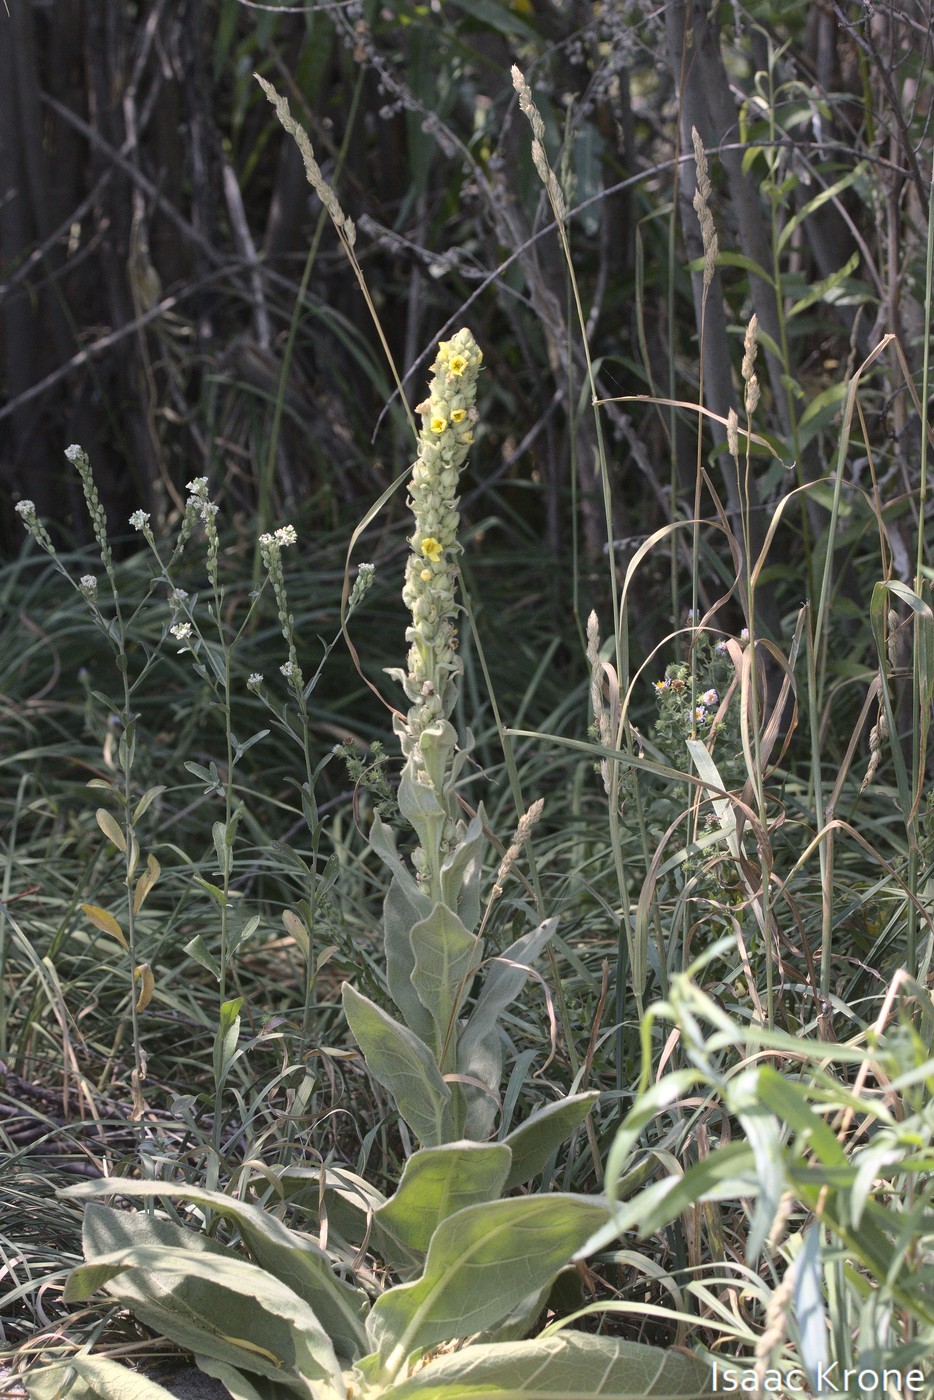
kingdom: Plantae
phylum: Tracheophyta
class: Magnoliopsida
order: Lamiales
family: Scrophulariaceae
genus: Verbascum
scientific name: Verbascum thapsus
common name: Common mullein
